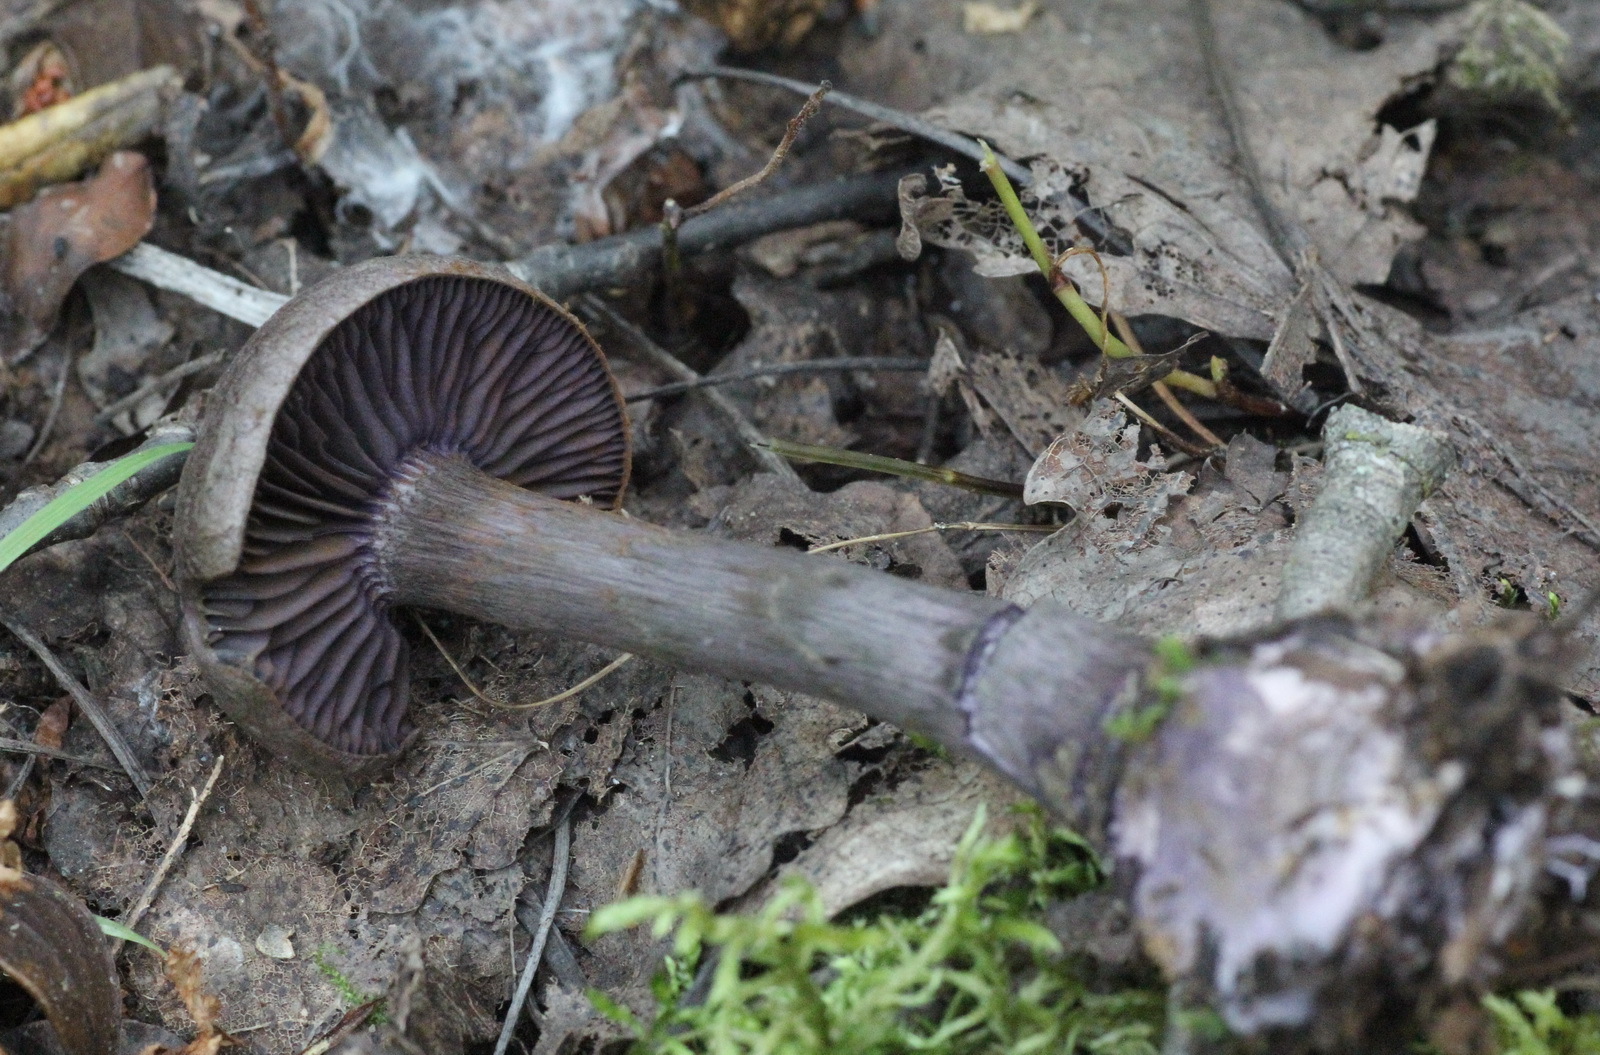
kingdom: Fungi
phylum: Basidiomycota
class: Agaricomycetes
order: Agaricales
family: Cortinariaceae
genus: Cortinarius
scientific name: Cortinarius violaceus
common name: Violet webcap
